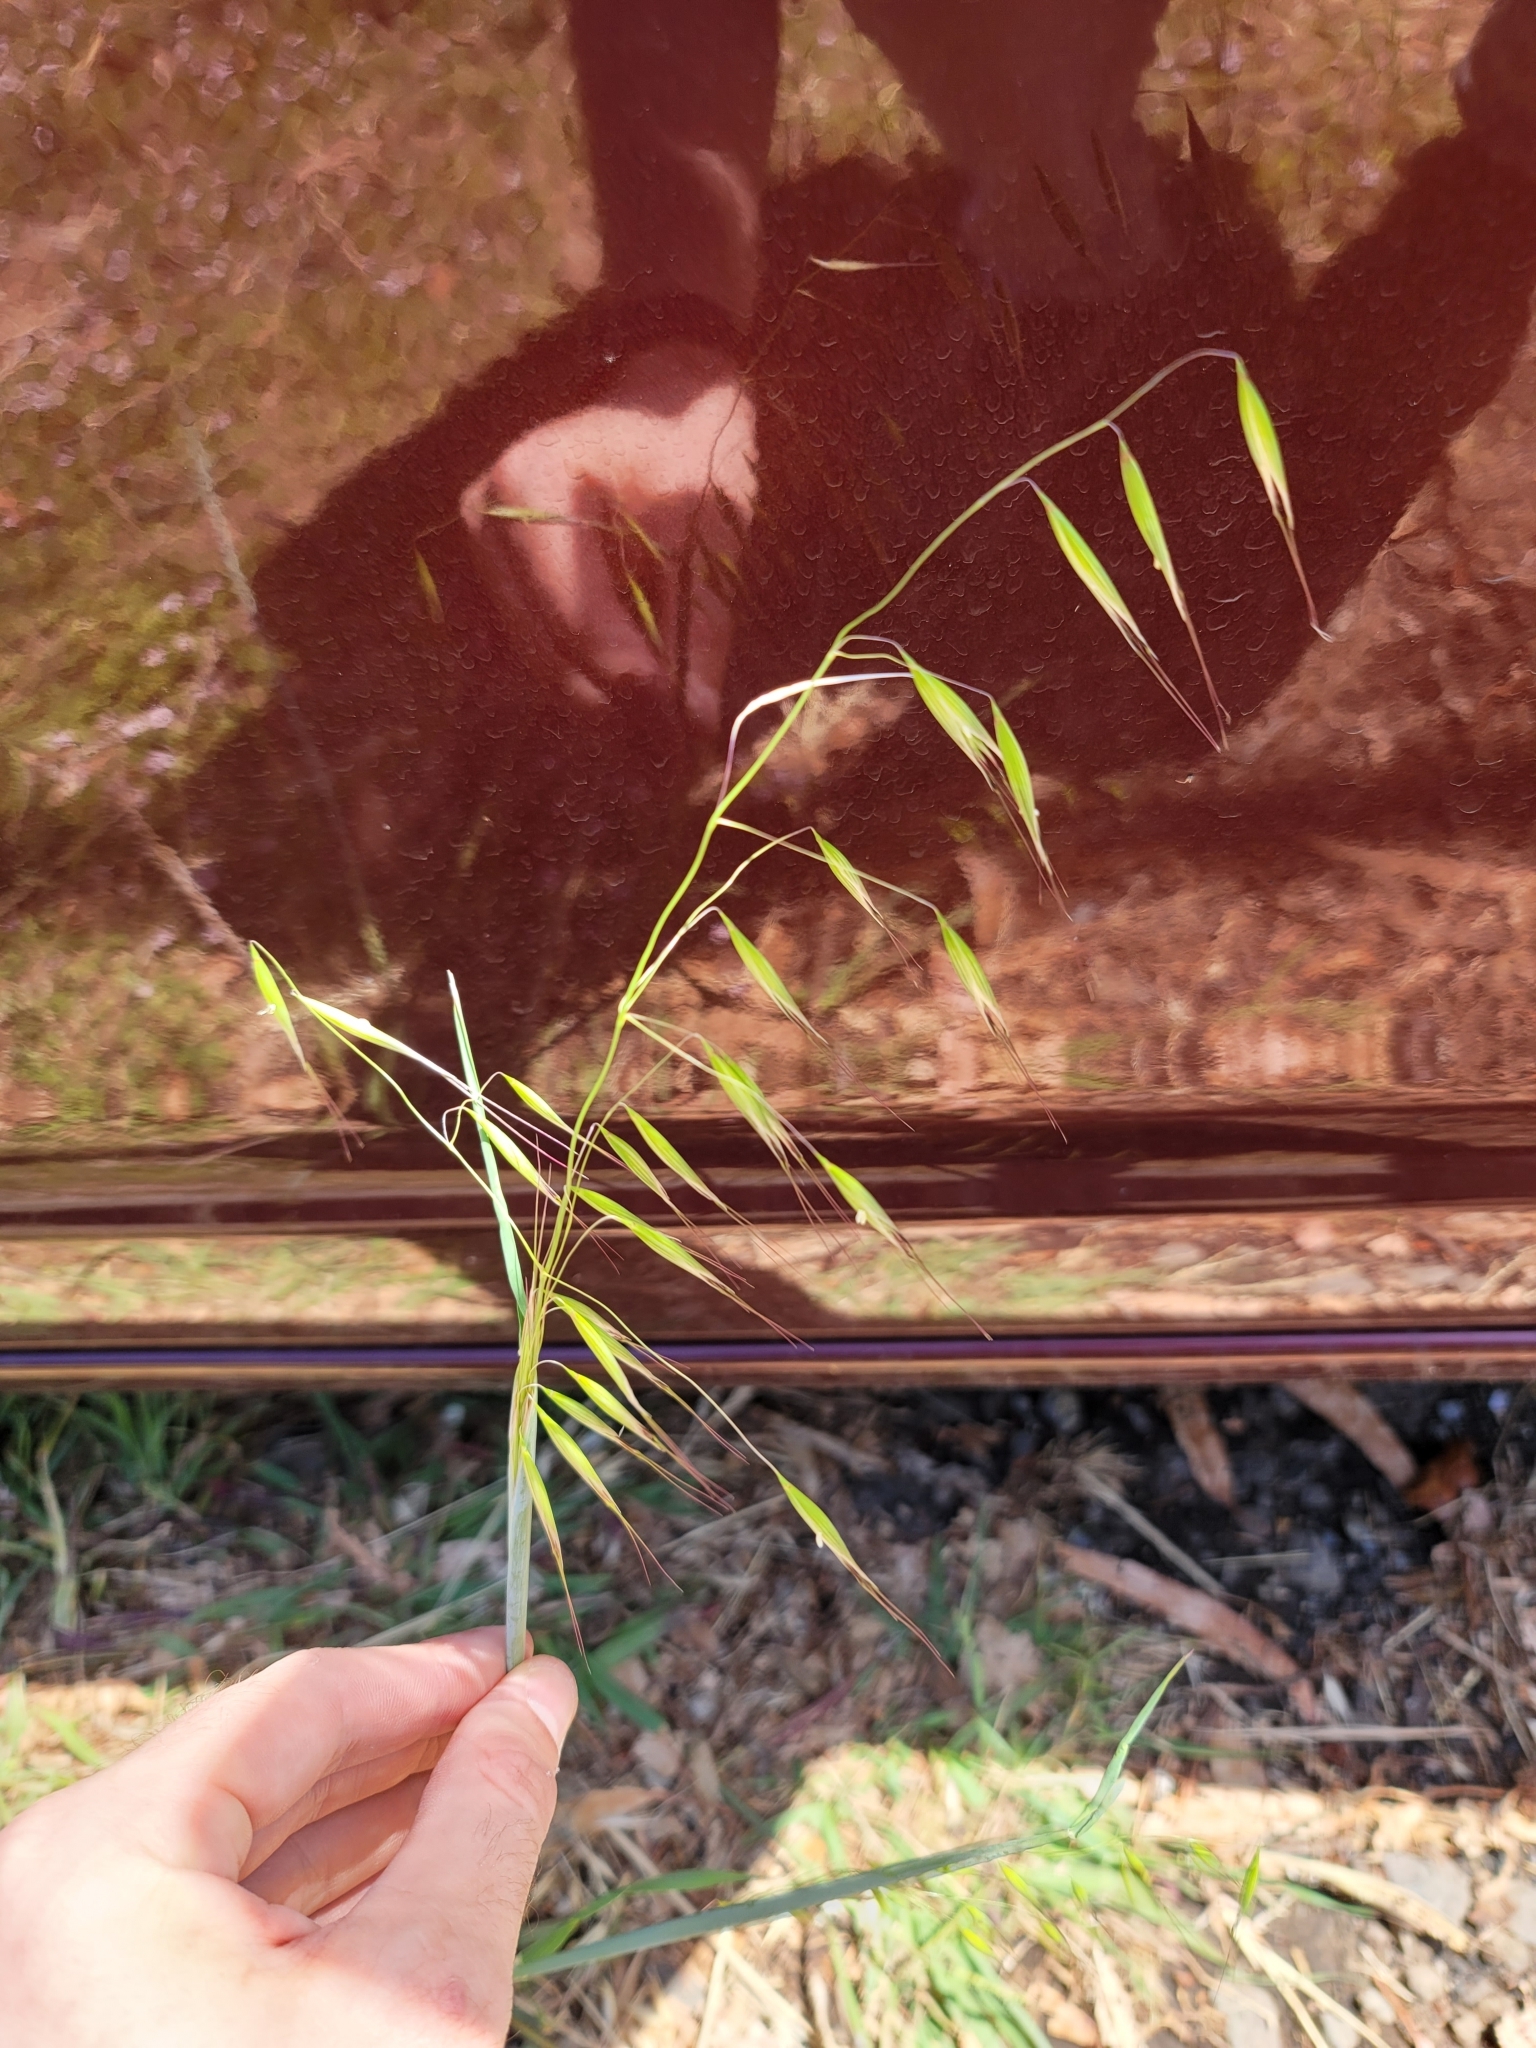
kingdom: Plantae
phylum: Tracheophyta
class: Liliopsida
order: Poales
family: Poaceae
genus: Avena
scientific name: Avena barbata
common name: Slender oat
